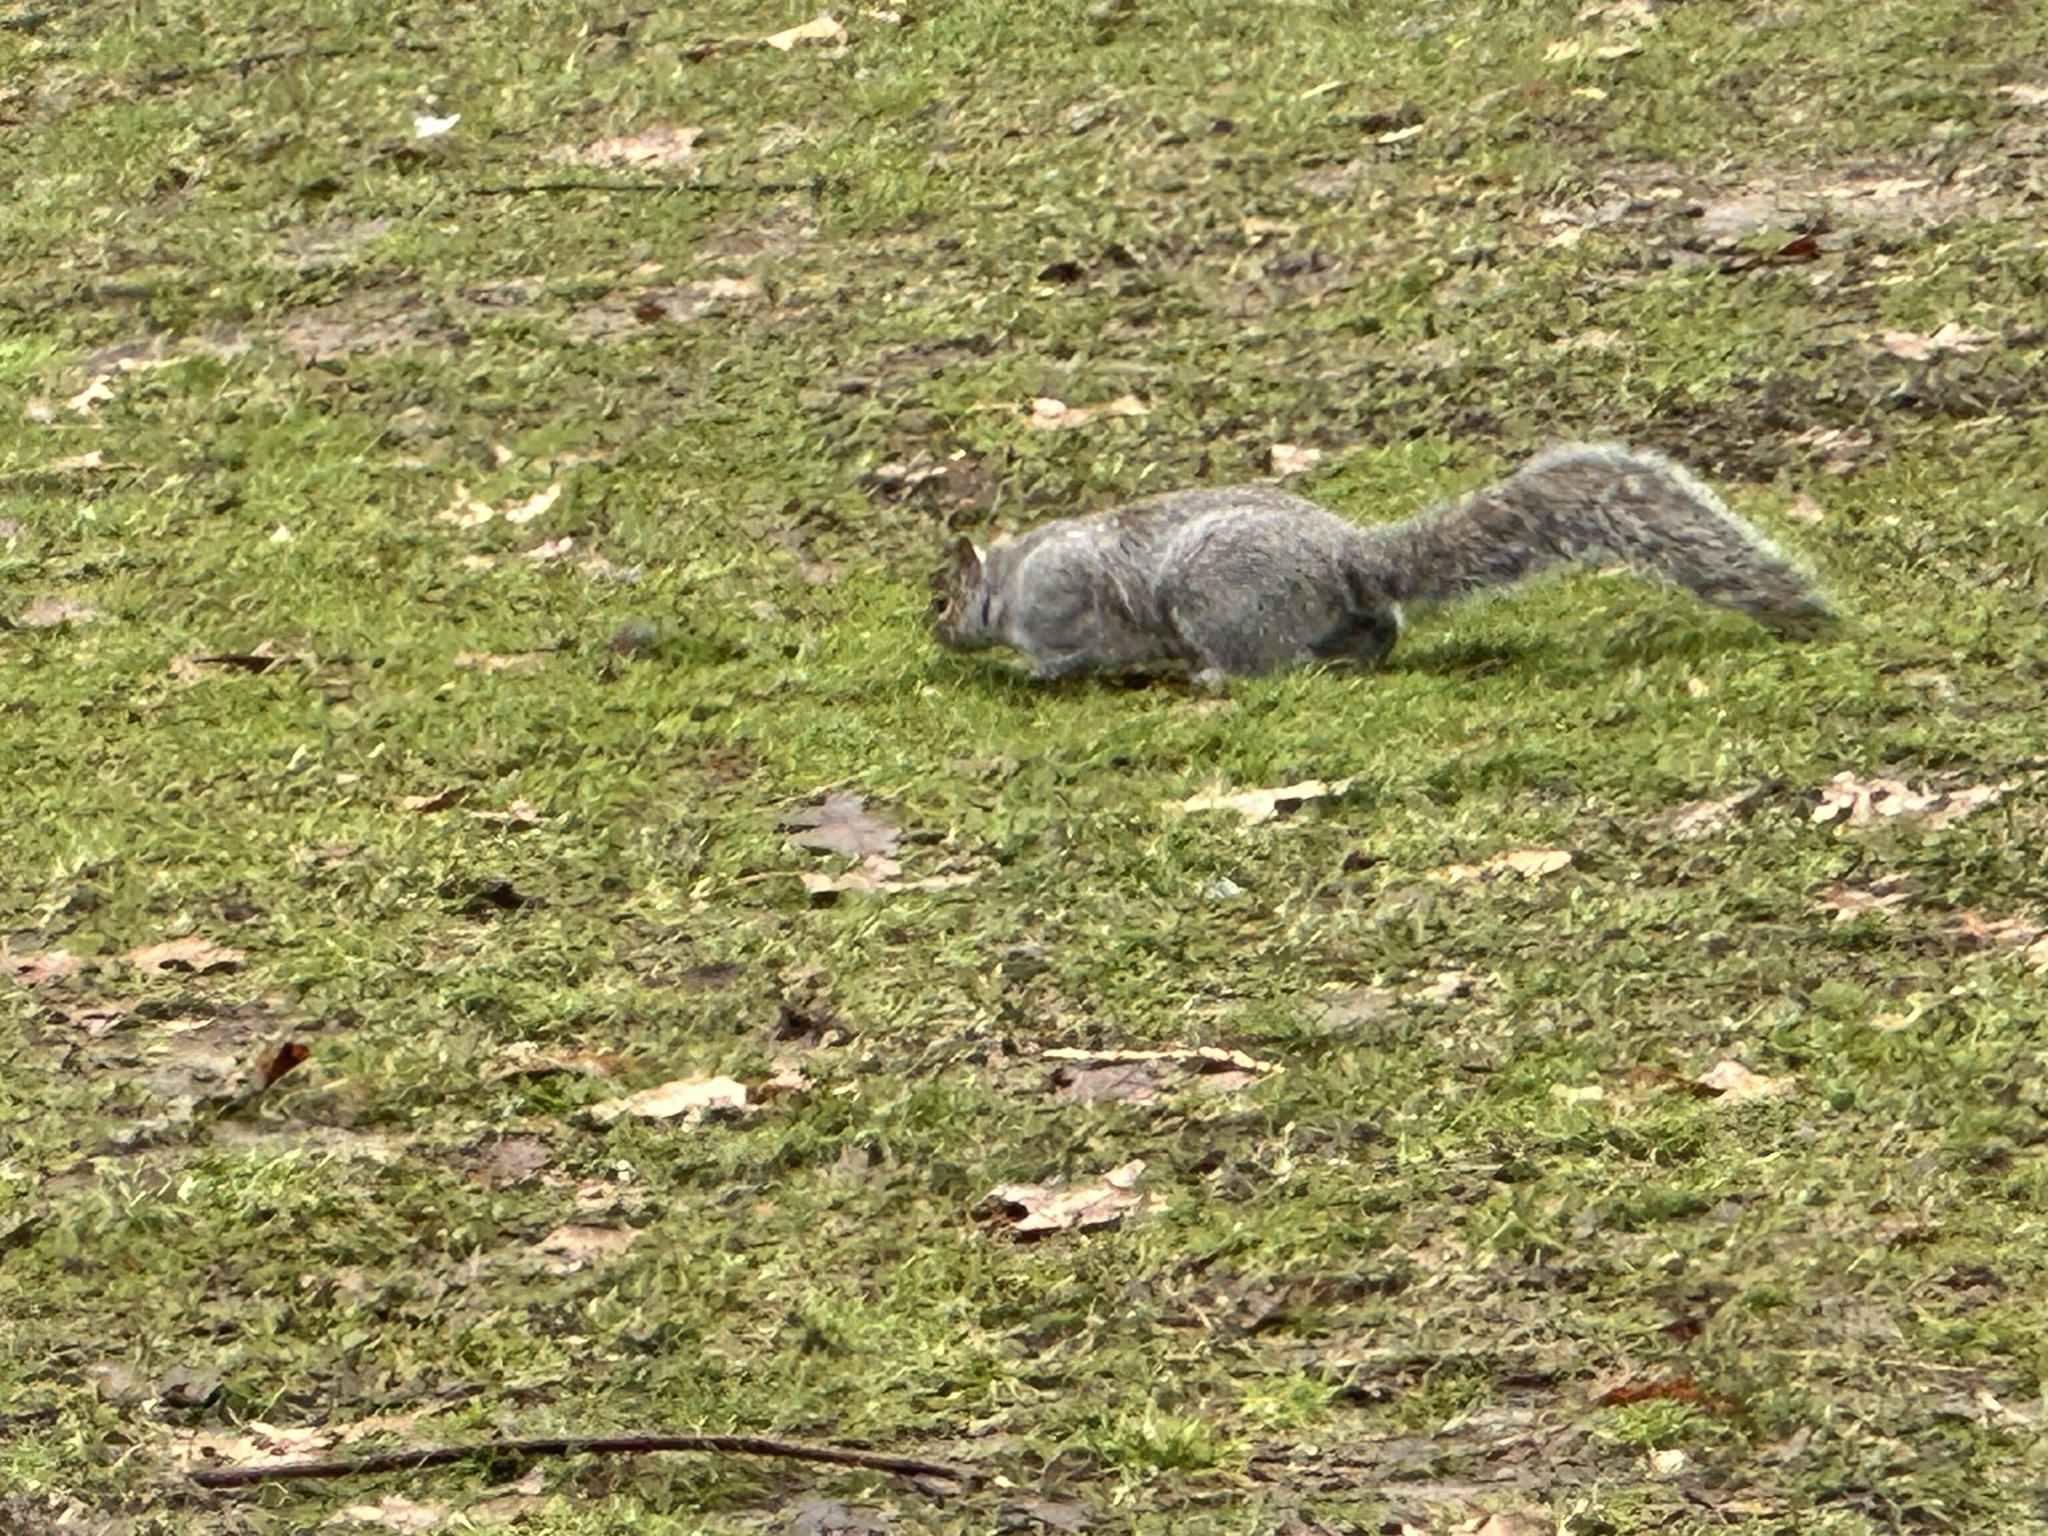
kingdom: Animalia
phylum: Chordata
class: Mammalia
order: Rodentia
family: Sciuridae
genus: Sciurus
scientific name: Sciurus carolinensis
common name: Eastern gray squirrel
